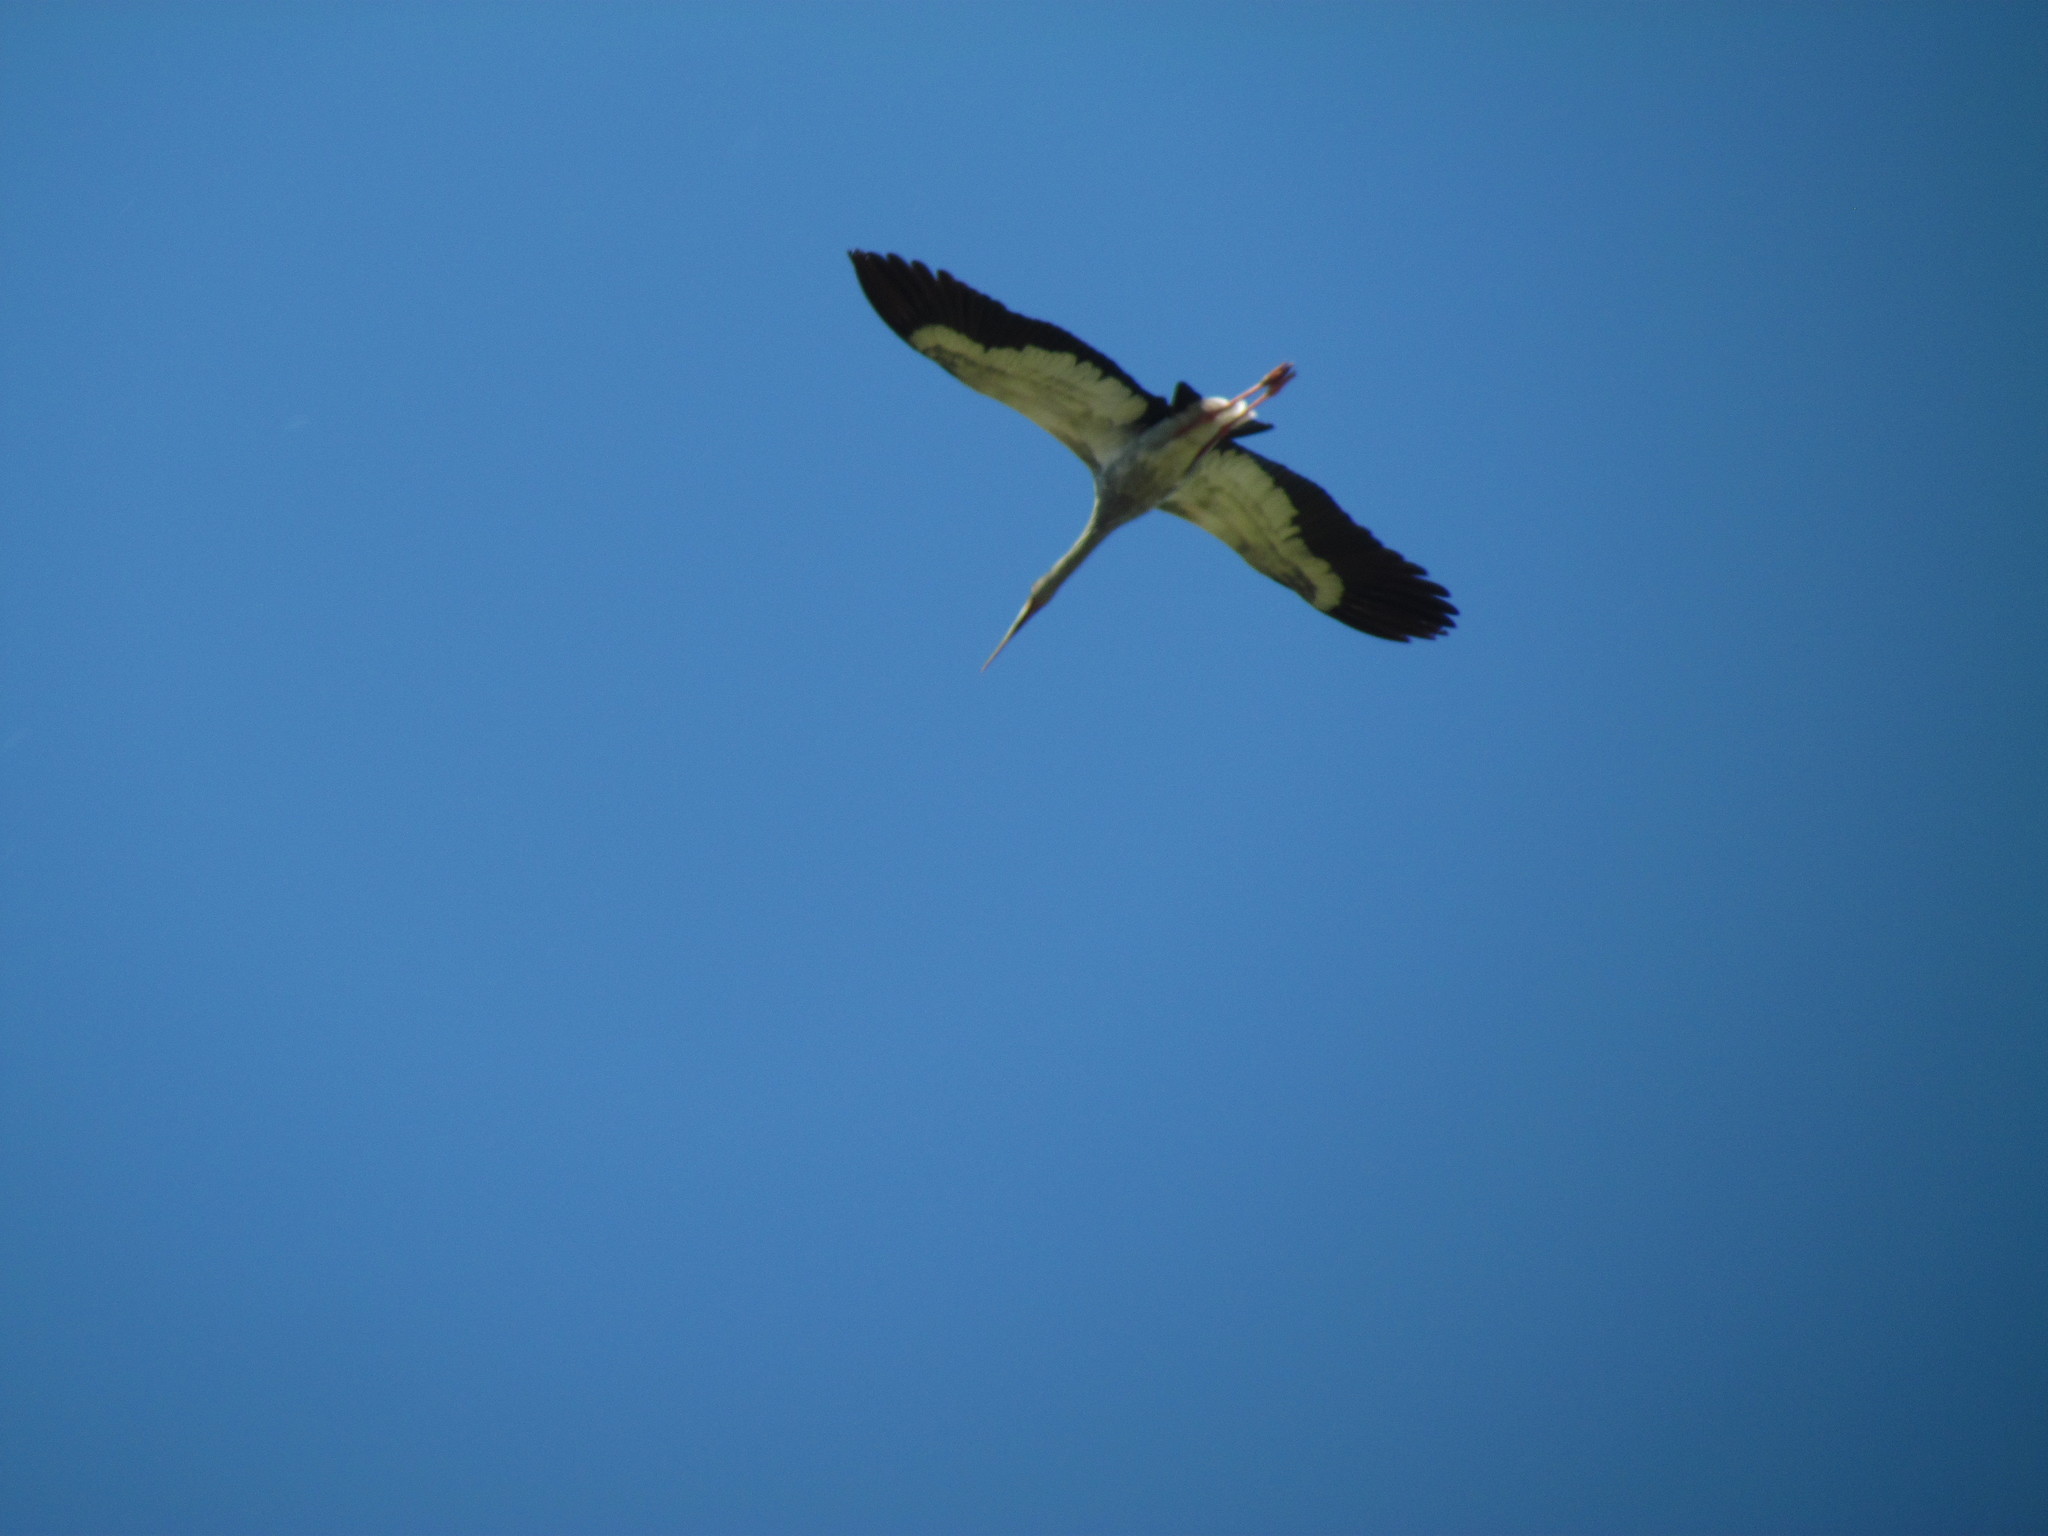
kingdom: Animalia
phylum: Chordata
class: Aves
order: Ciconiiformes
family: Ciconiidae
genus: Ciconia
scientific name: Ciconia maguari
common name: Maguari stork
